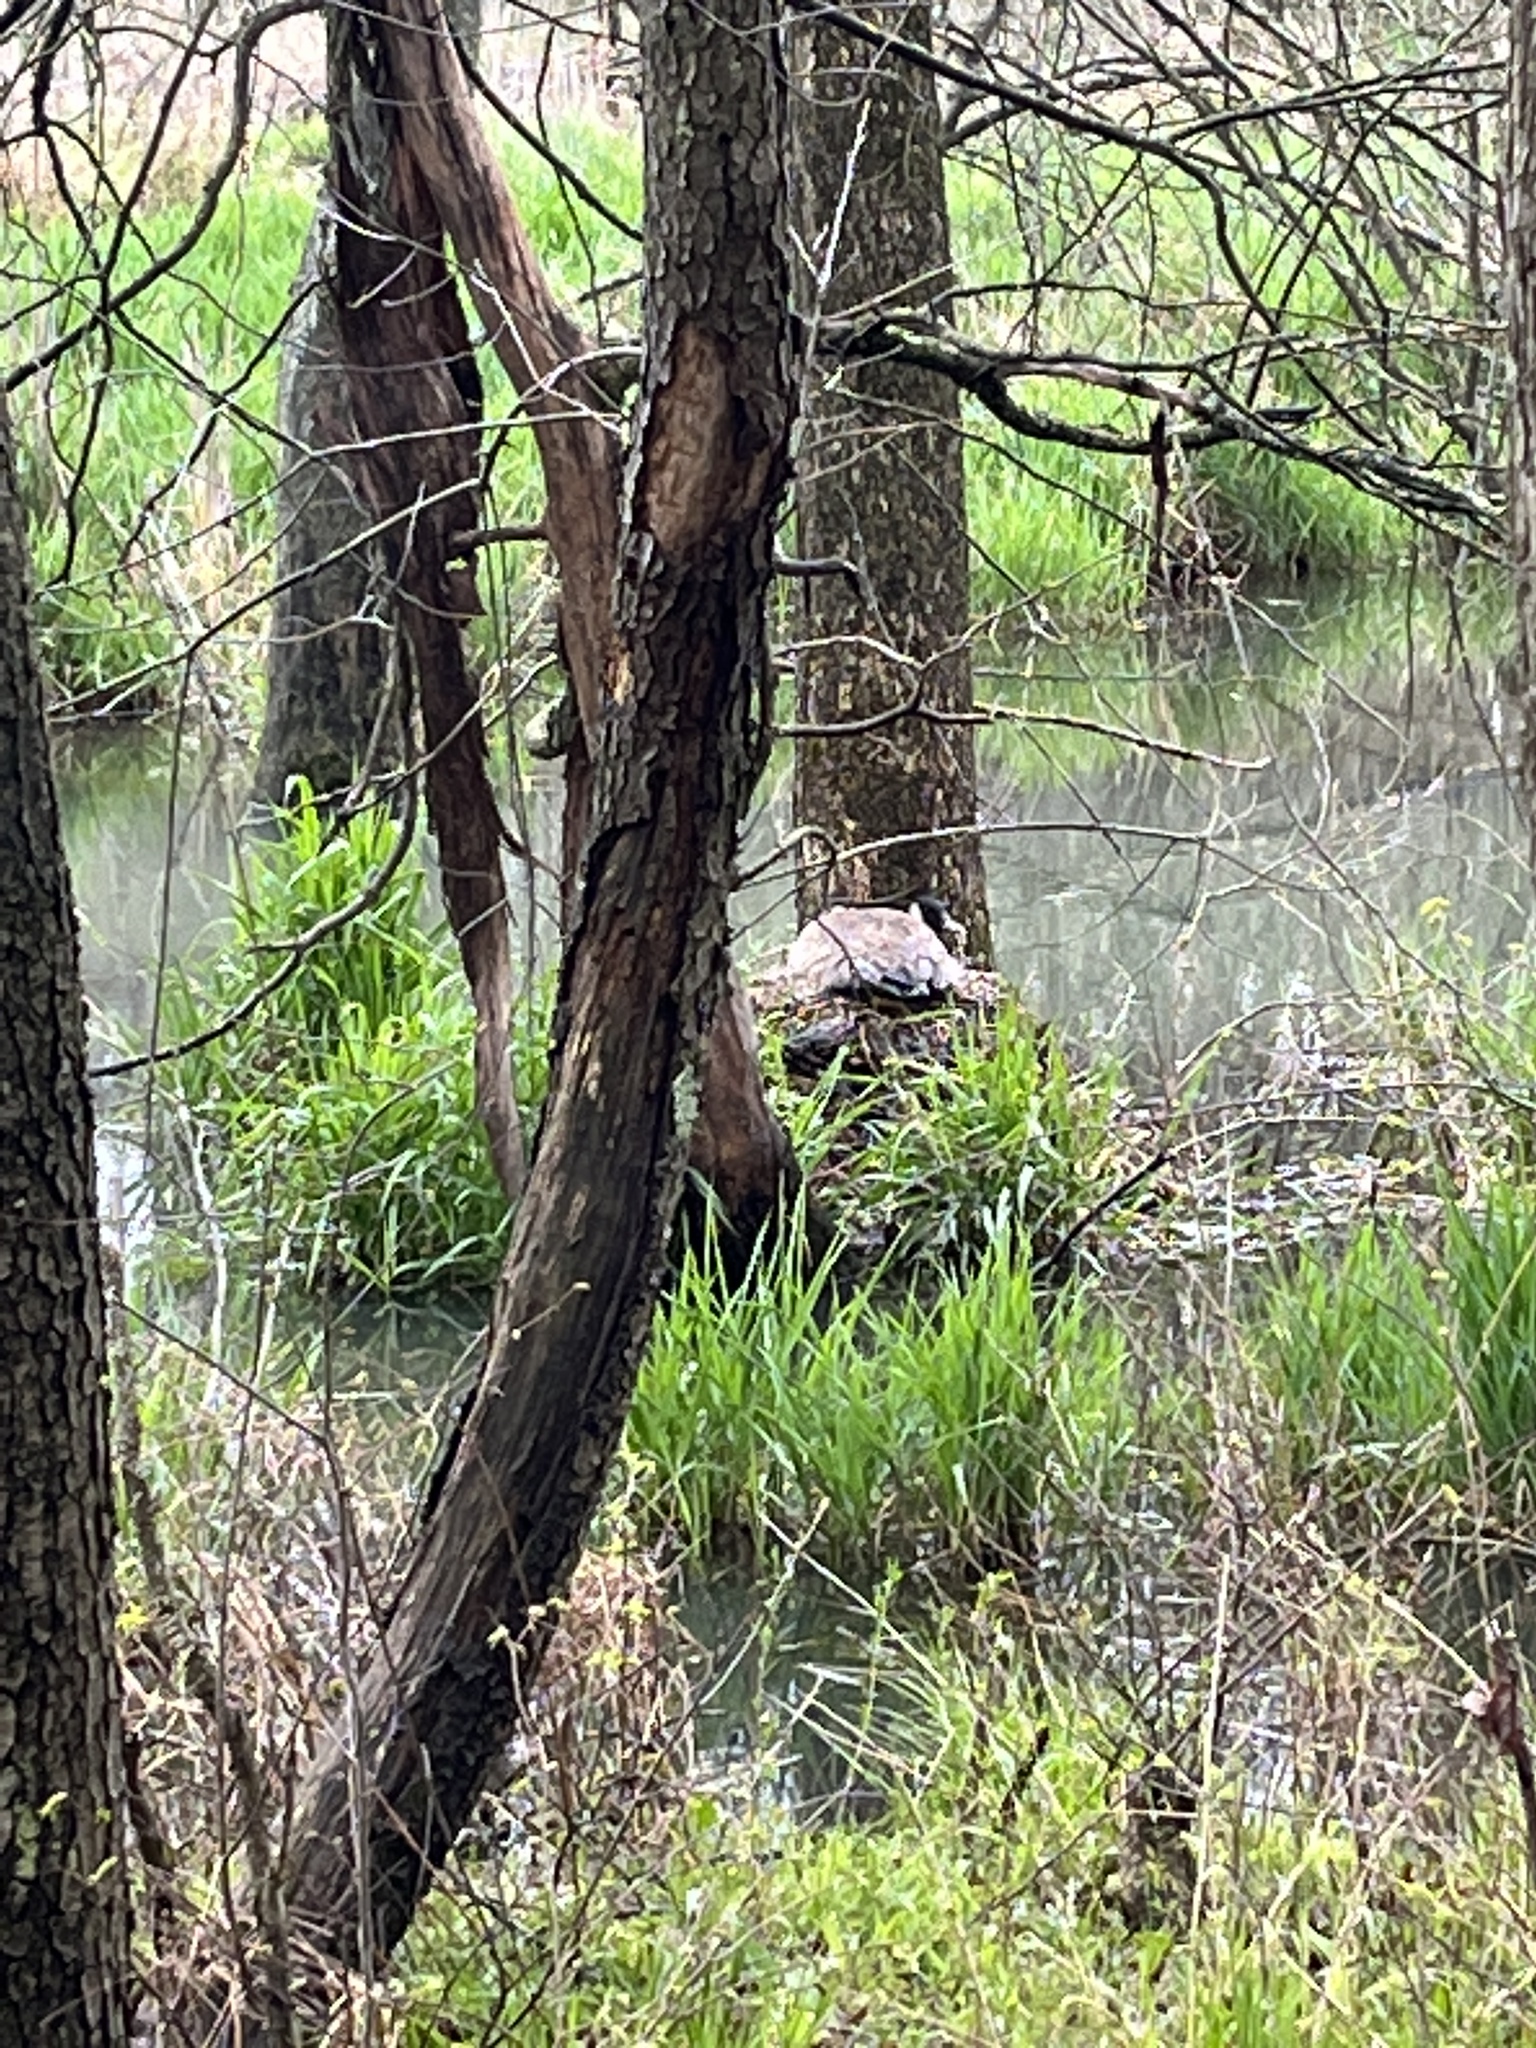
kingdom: Animalia
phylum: Chordata
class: Aves
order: Anseriformes
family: Anatidae
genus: Branta
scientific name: Branta canadensis
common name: Canada goose
